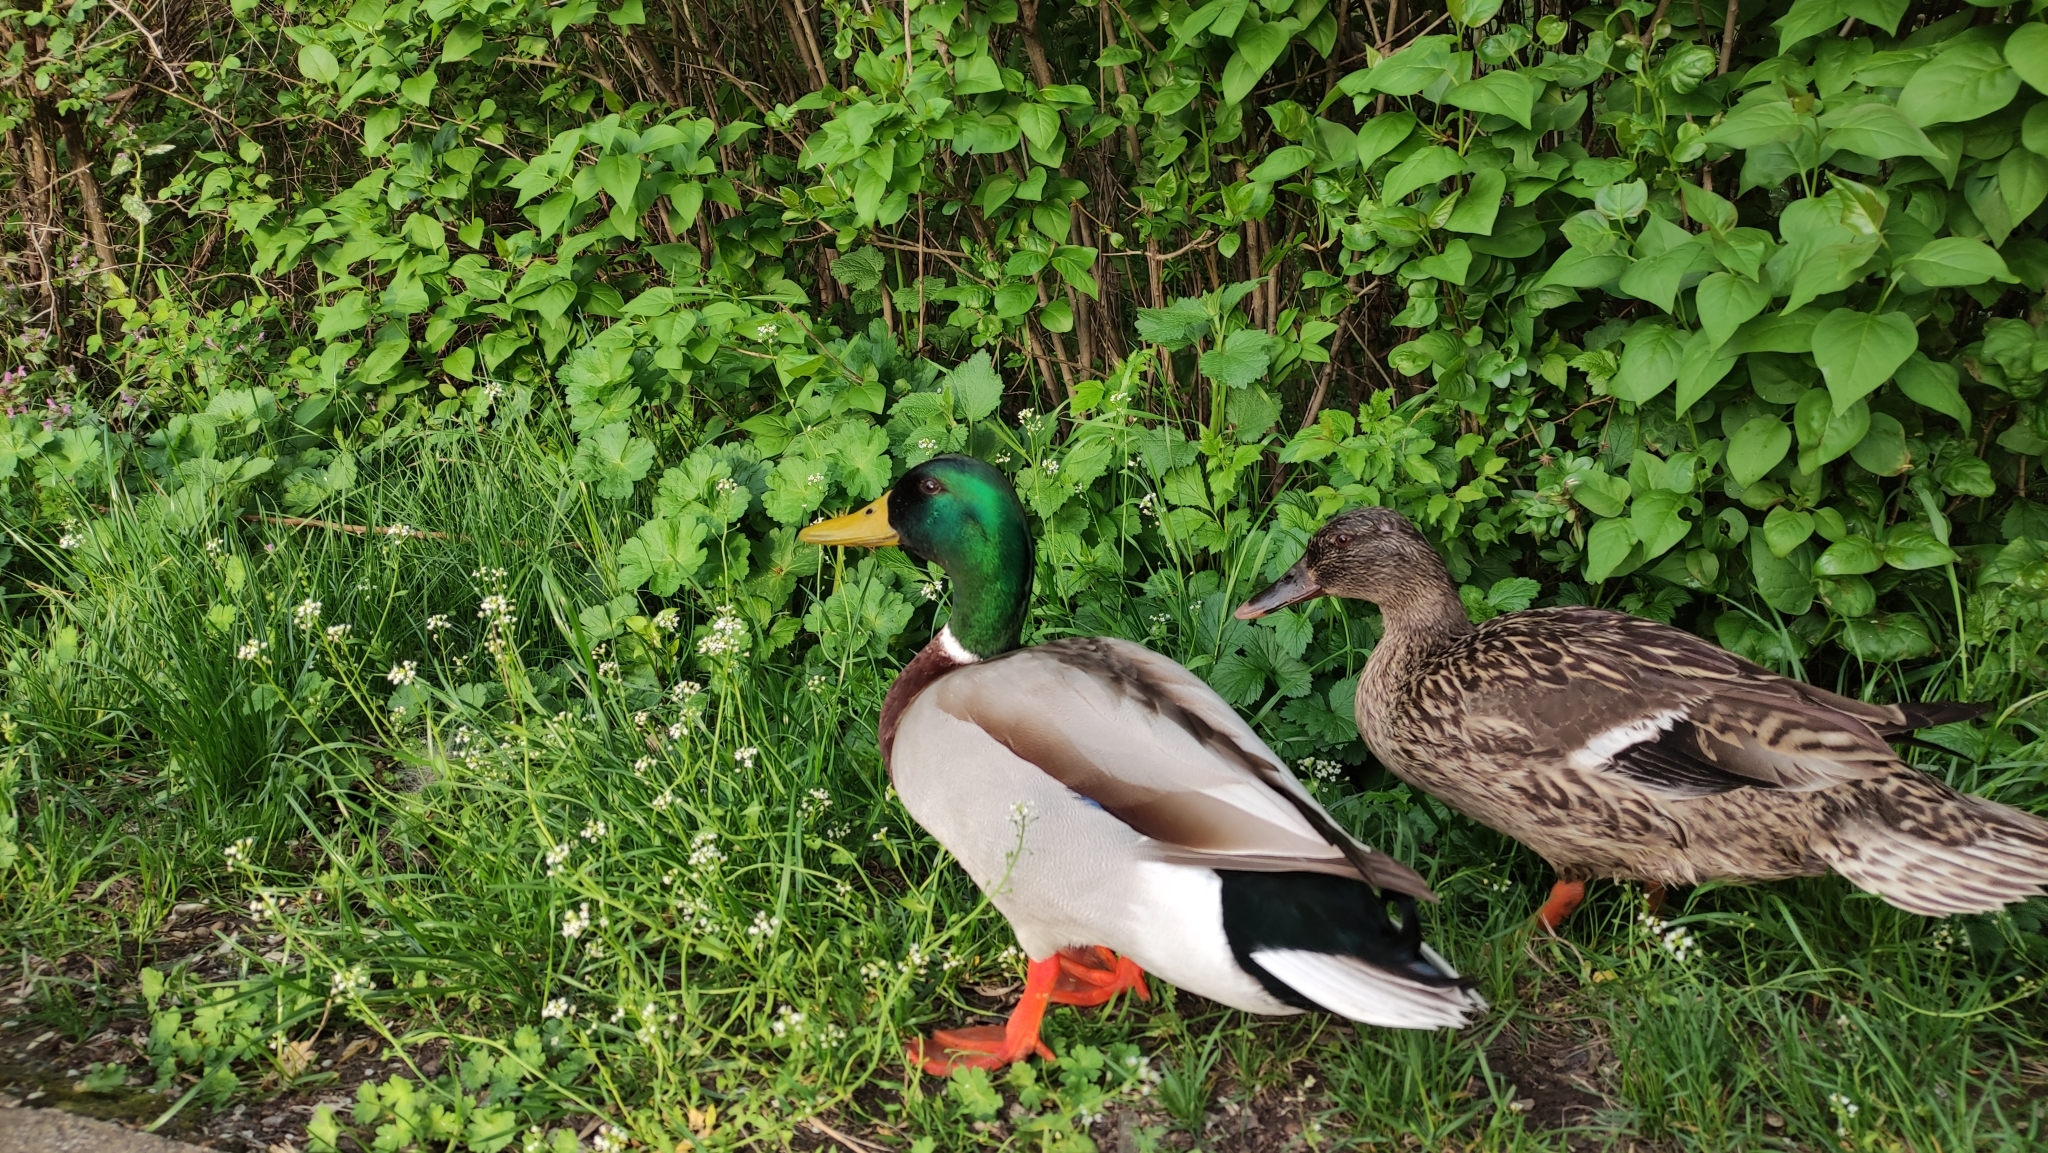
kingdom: Animalia
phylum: Chordata
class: Aves
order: Anseriformes
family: Anatidae
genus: Anas
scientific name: Anas platyrhynchos
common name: Mallard
